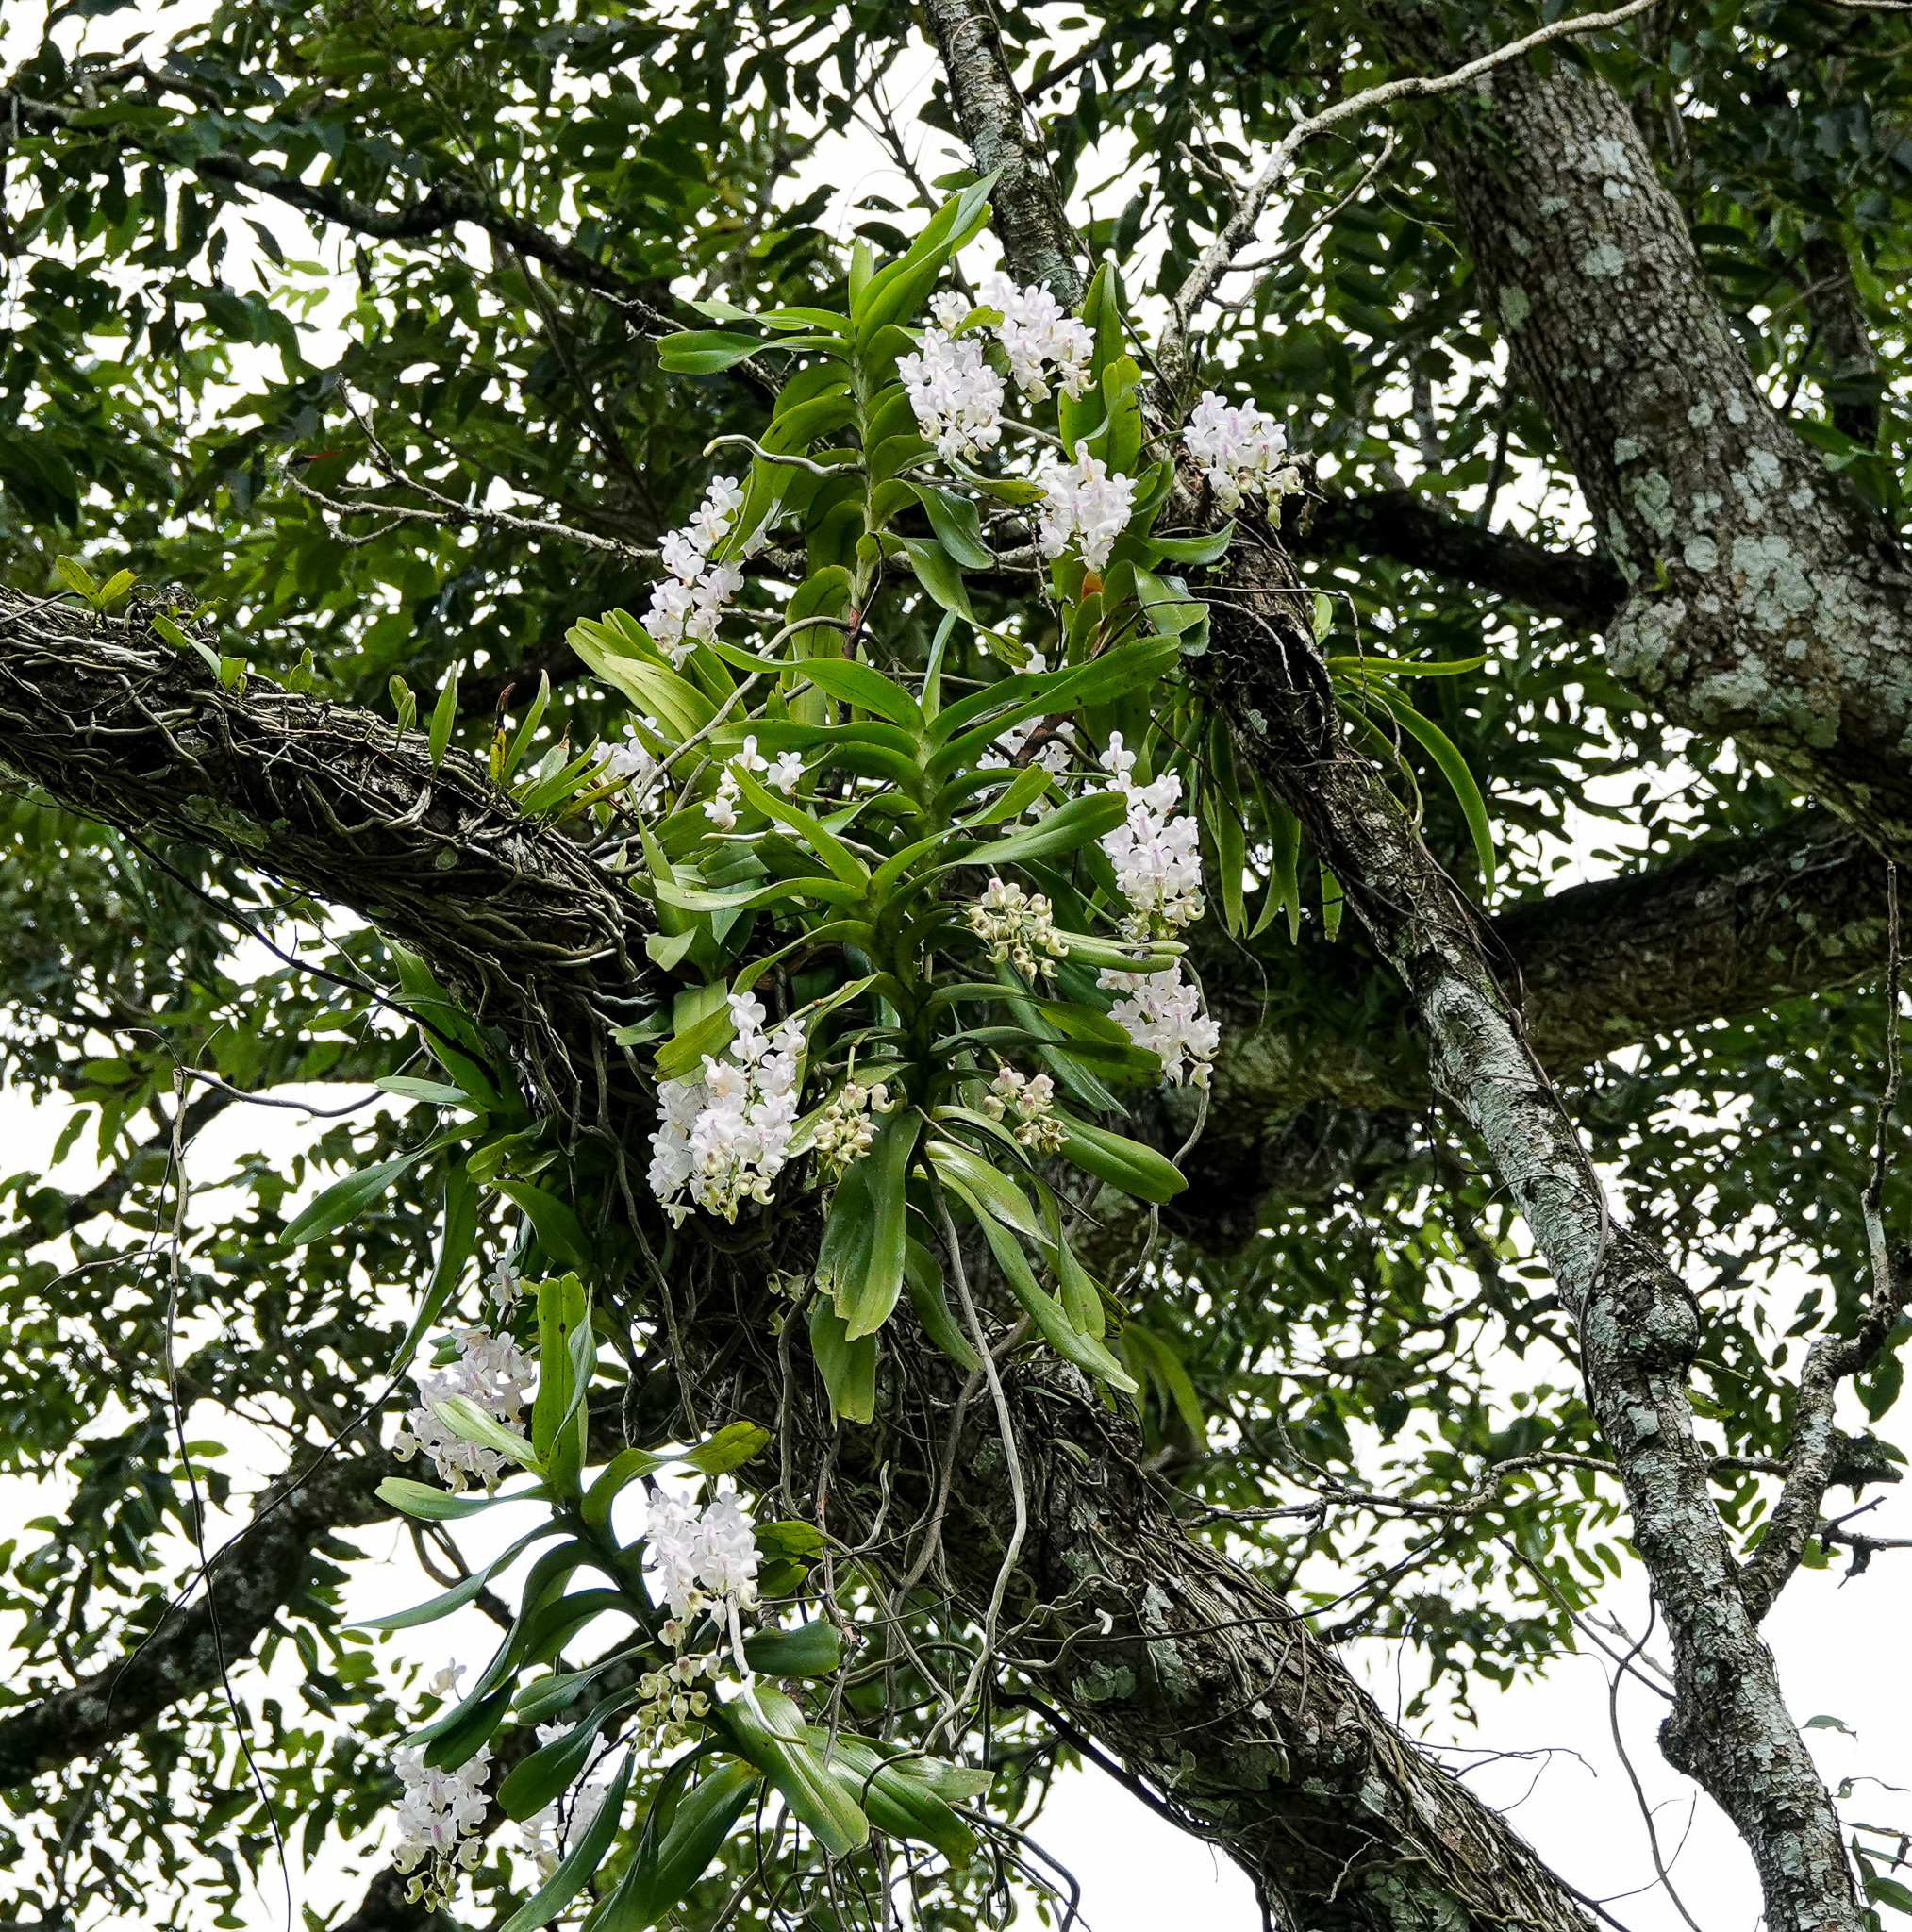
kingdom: Plantae
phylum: Tracheophyta
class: Liliopsida
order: Asparagales
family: Orchidaceae
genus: Aerides
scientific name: Aerides odorata
